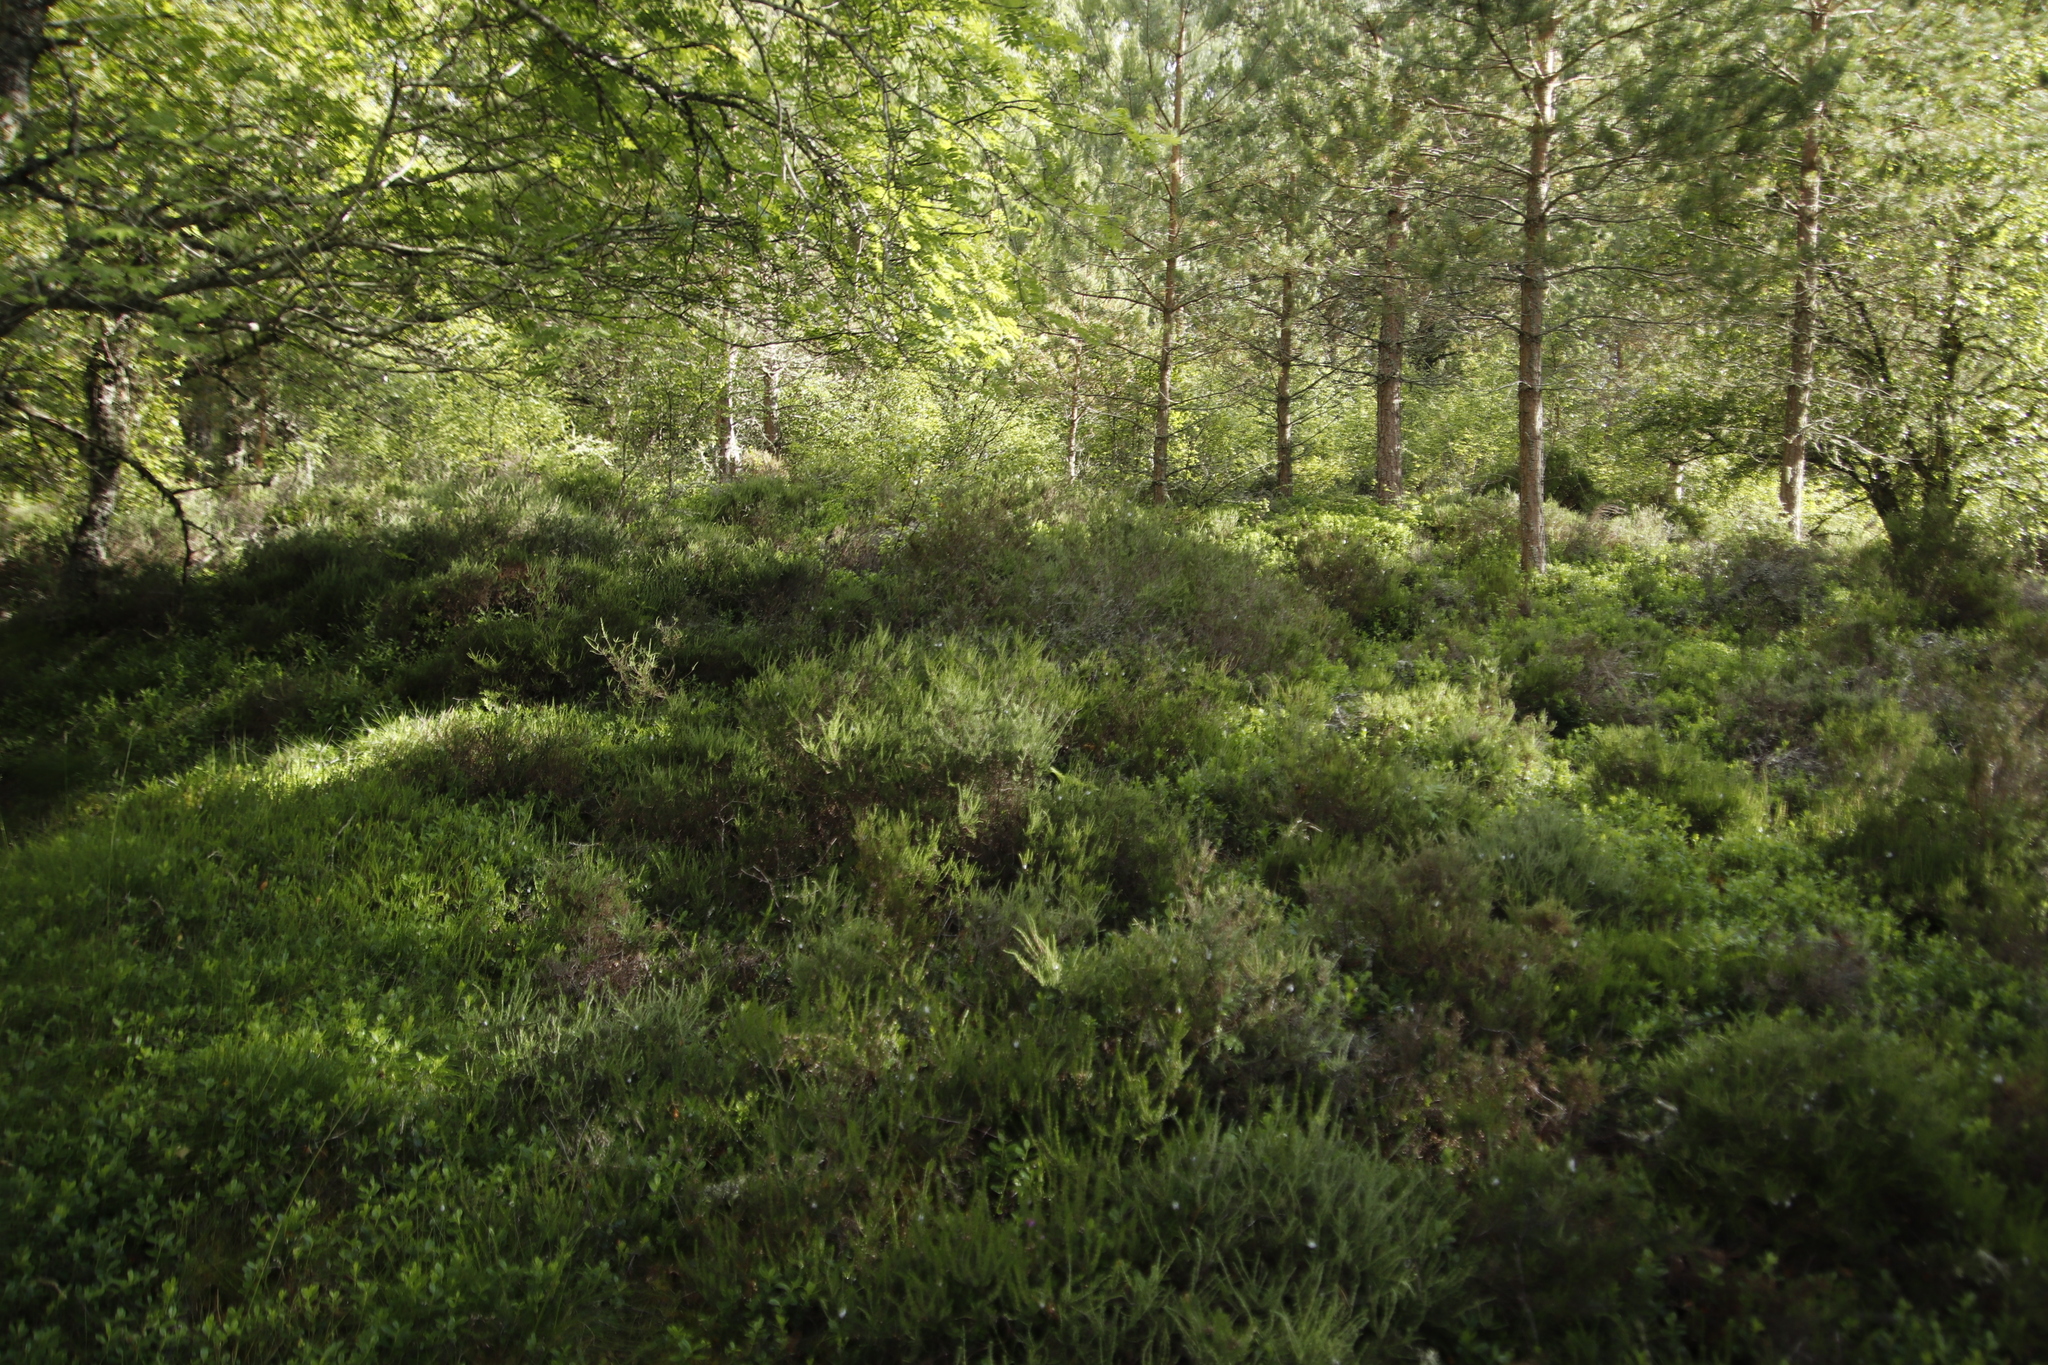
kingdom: Plantae
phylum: Tracheophyta
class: Magnoliopsida
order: Ericales
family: Ericaceae
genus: Calluna
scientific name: Calluna vulgaris
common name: Heather
